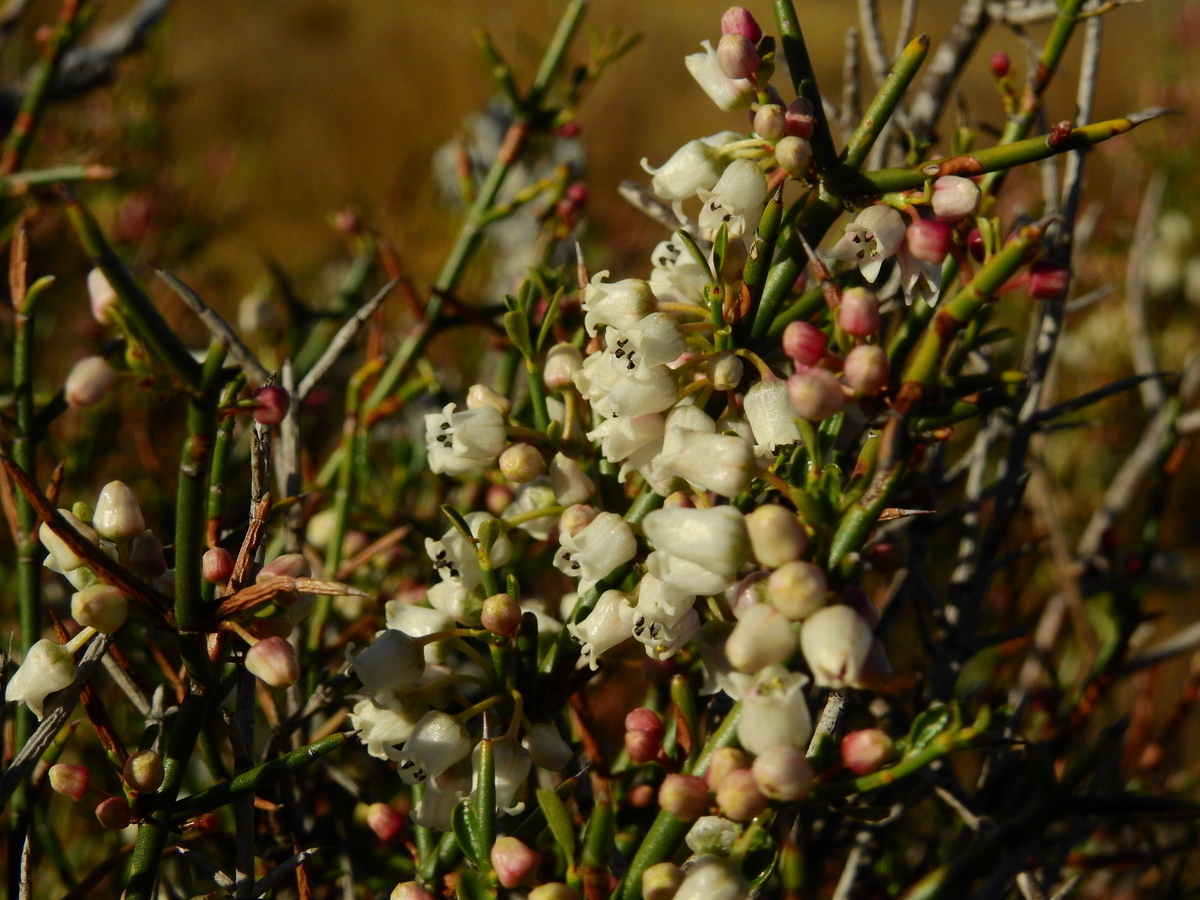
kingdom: Plantae
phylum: Tracheophyta
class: Magnoliopsida
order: Rosales
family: Rhamnaceae
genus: Discaria
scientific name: Discaria americana
